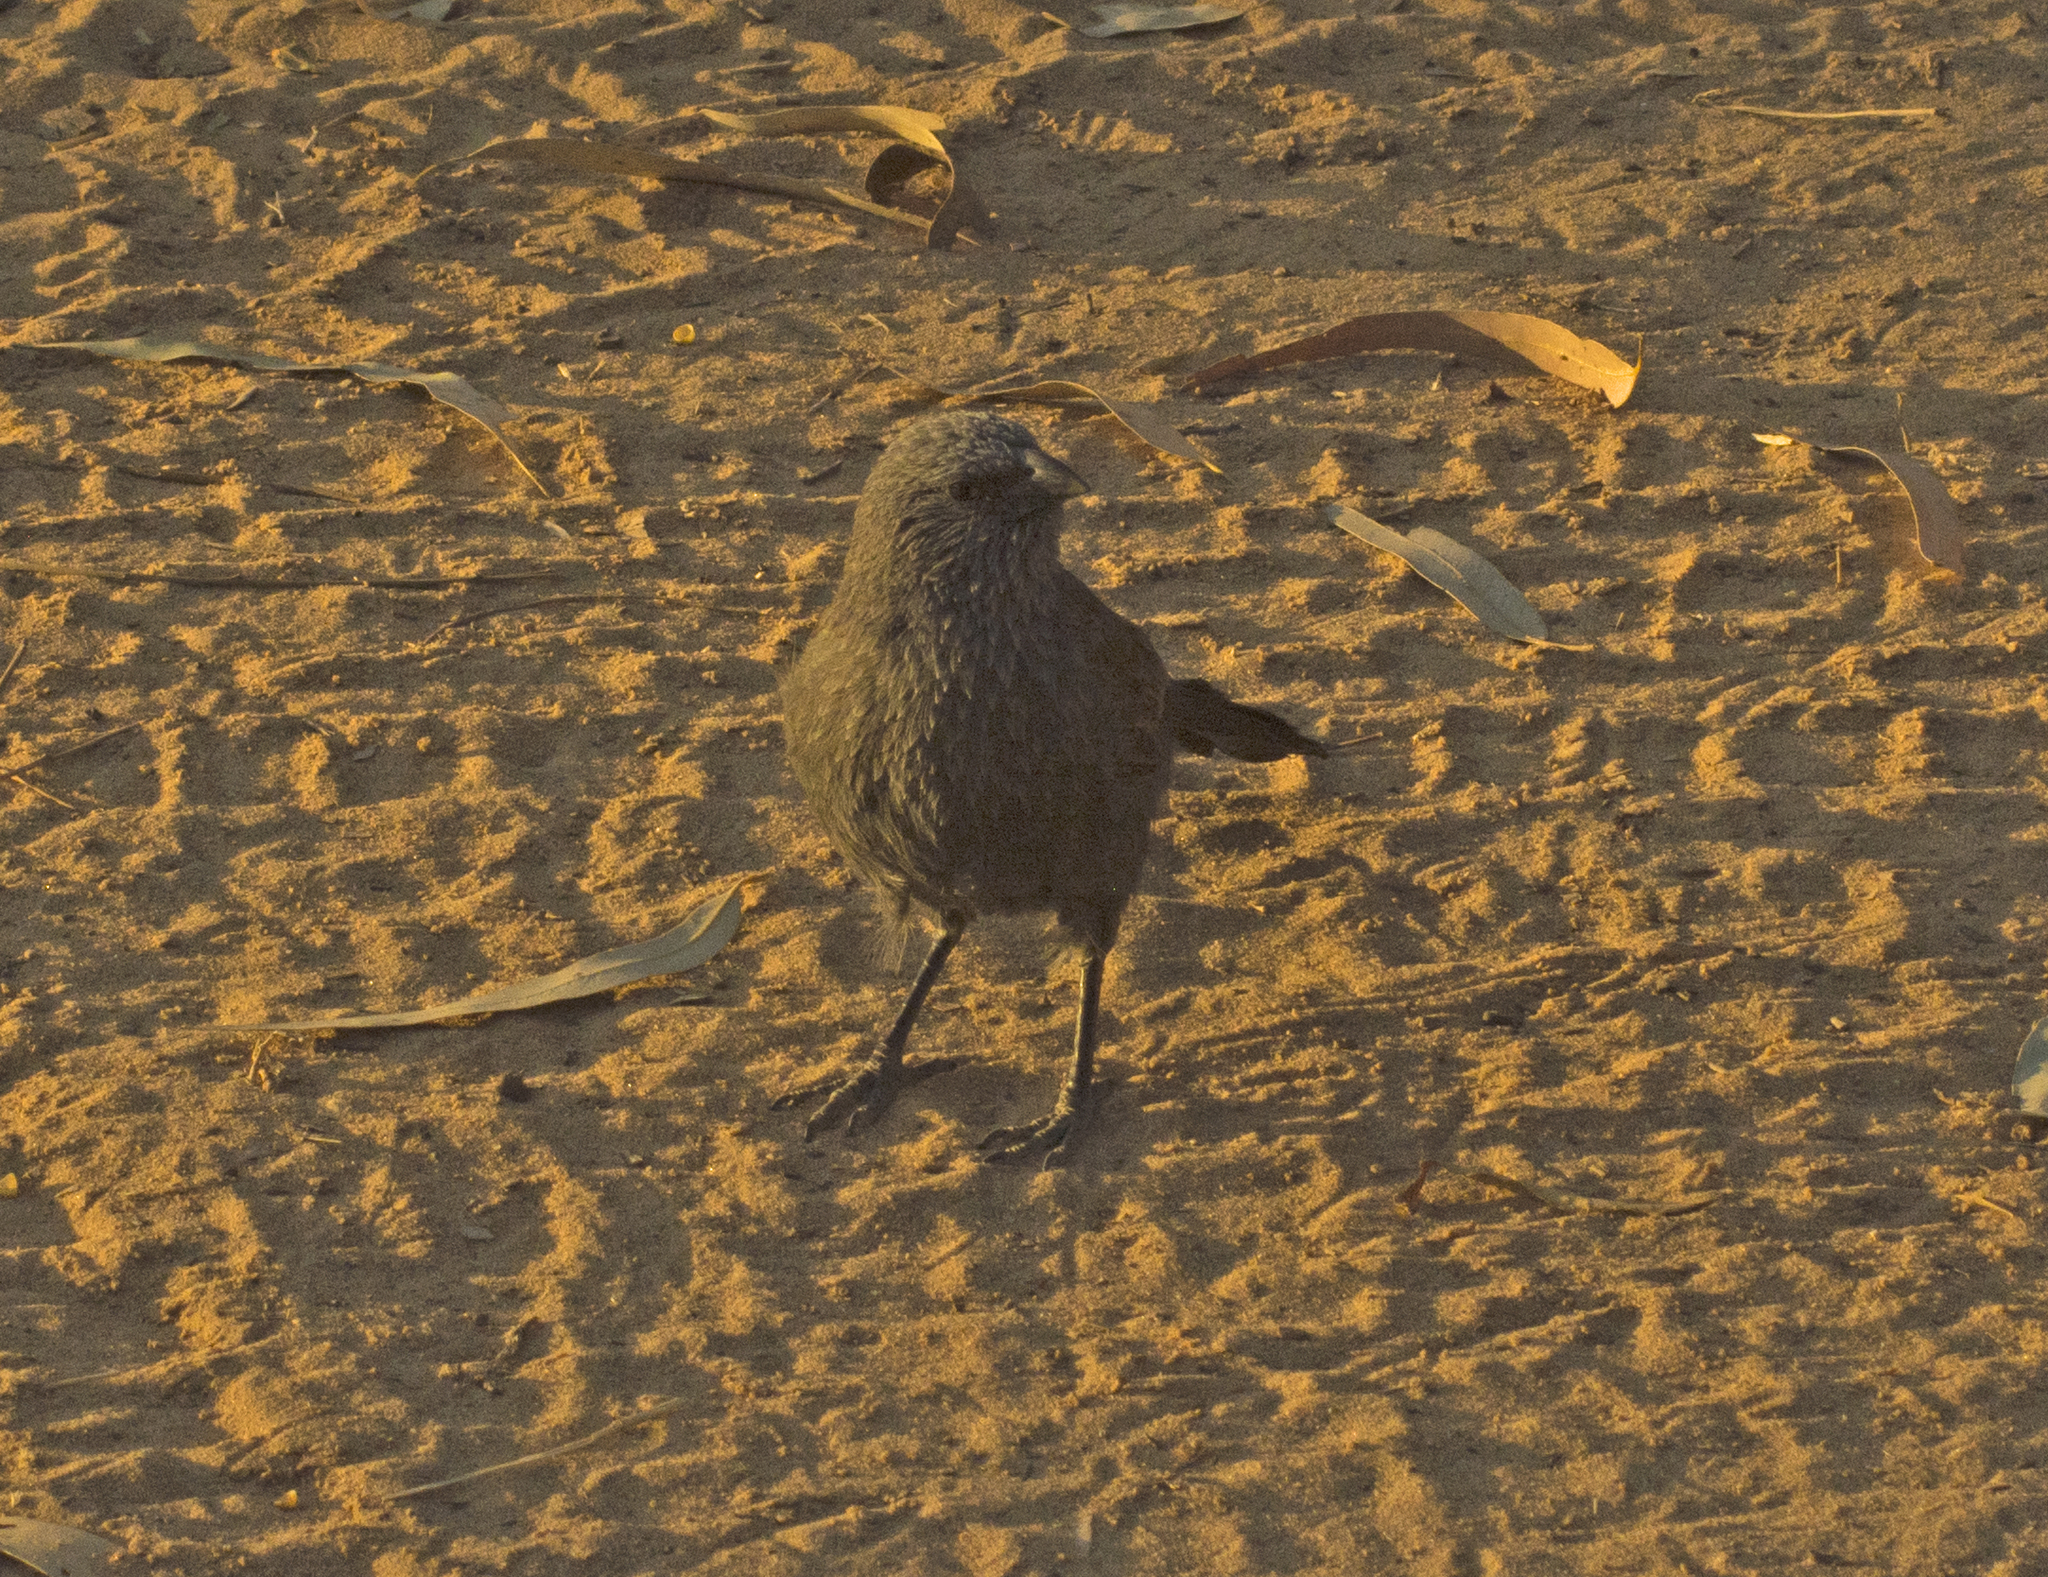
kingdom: Animalia
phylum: Chordata
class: Aves
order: Passeriformes
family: Corcoracidae
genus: Struthidea
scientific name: Struthidea cinerea
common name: Apostlebird
